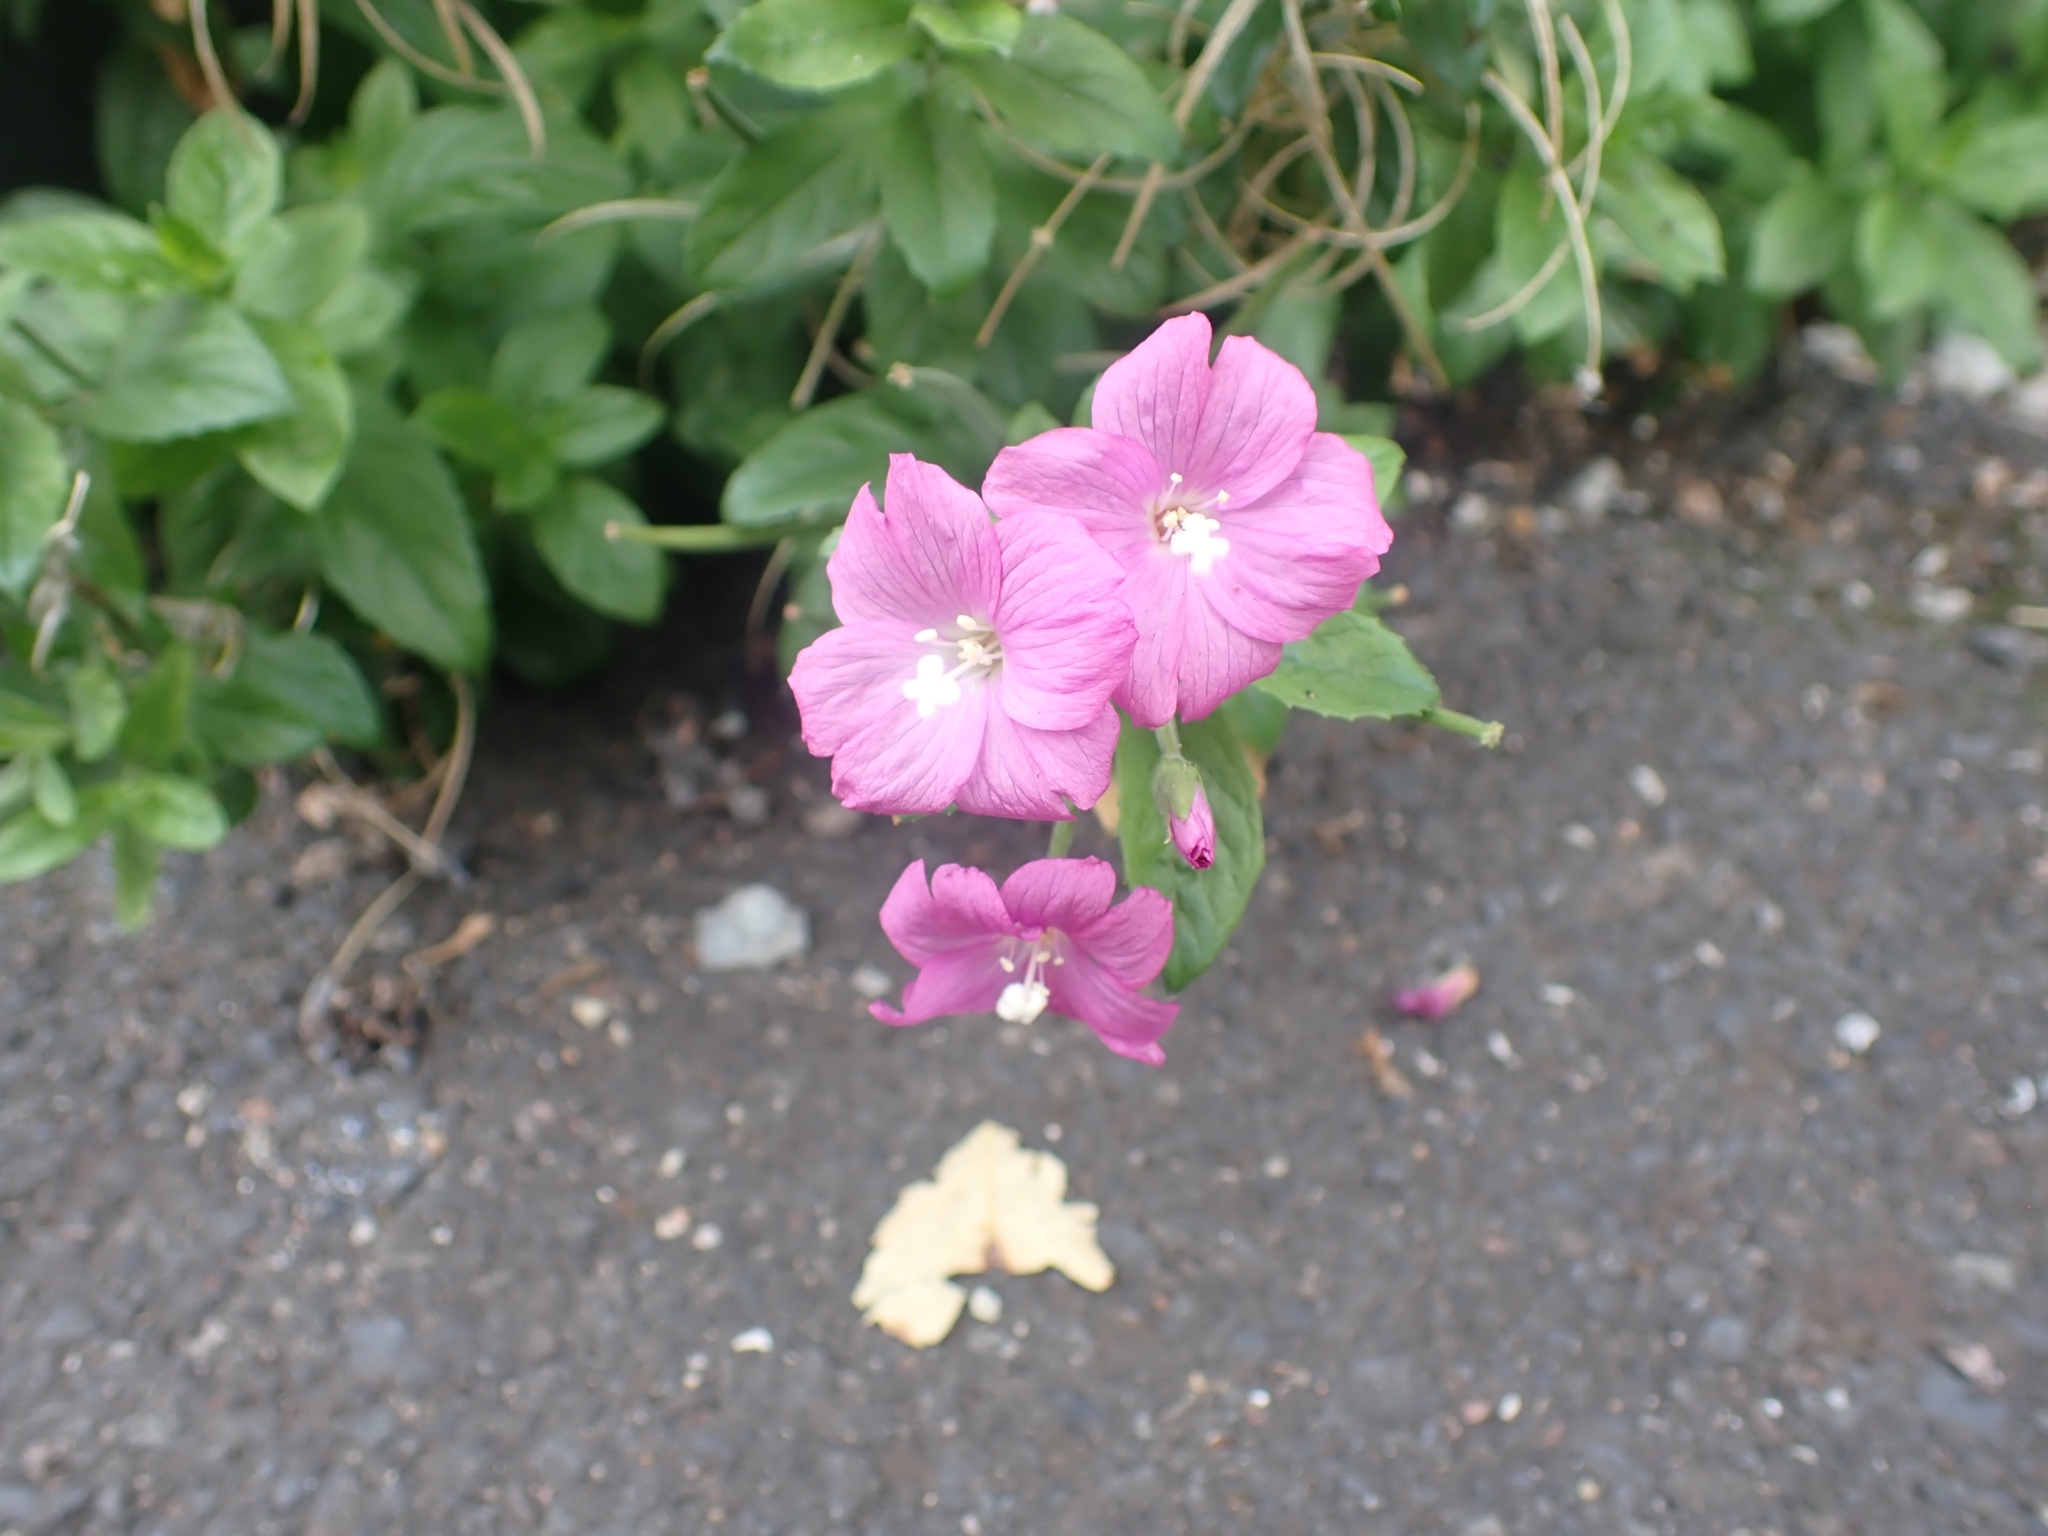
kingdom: Plantae
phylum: Tracheophyta
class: Magnoliopsida
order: Myrtales
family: Onagraceae
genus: Epilobium
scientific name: Epilobium hirsutum
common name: Great willowherb
